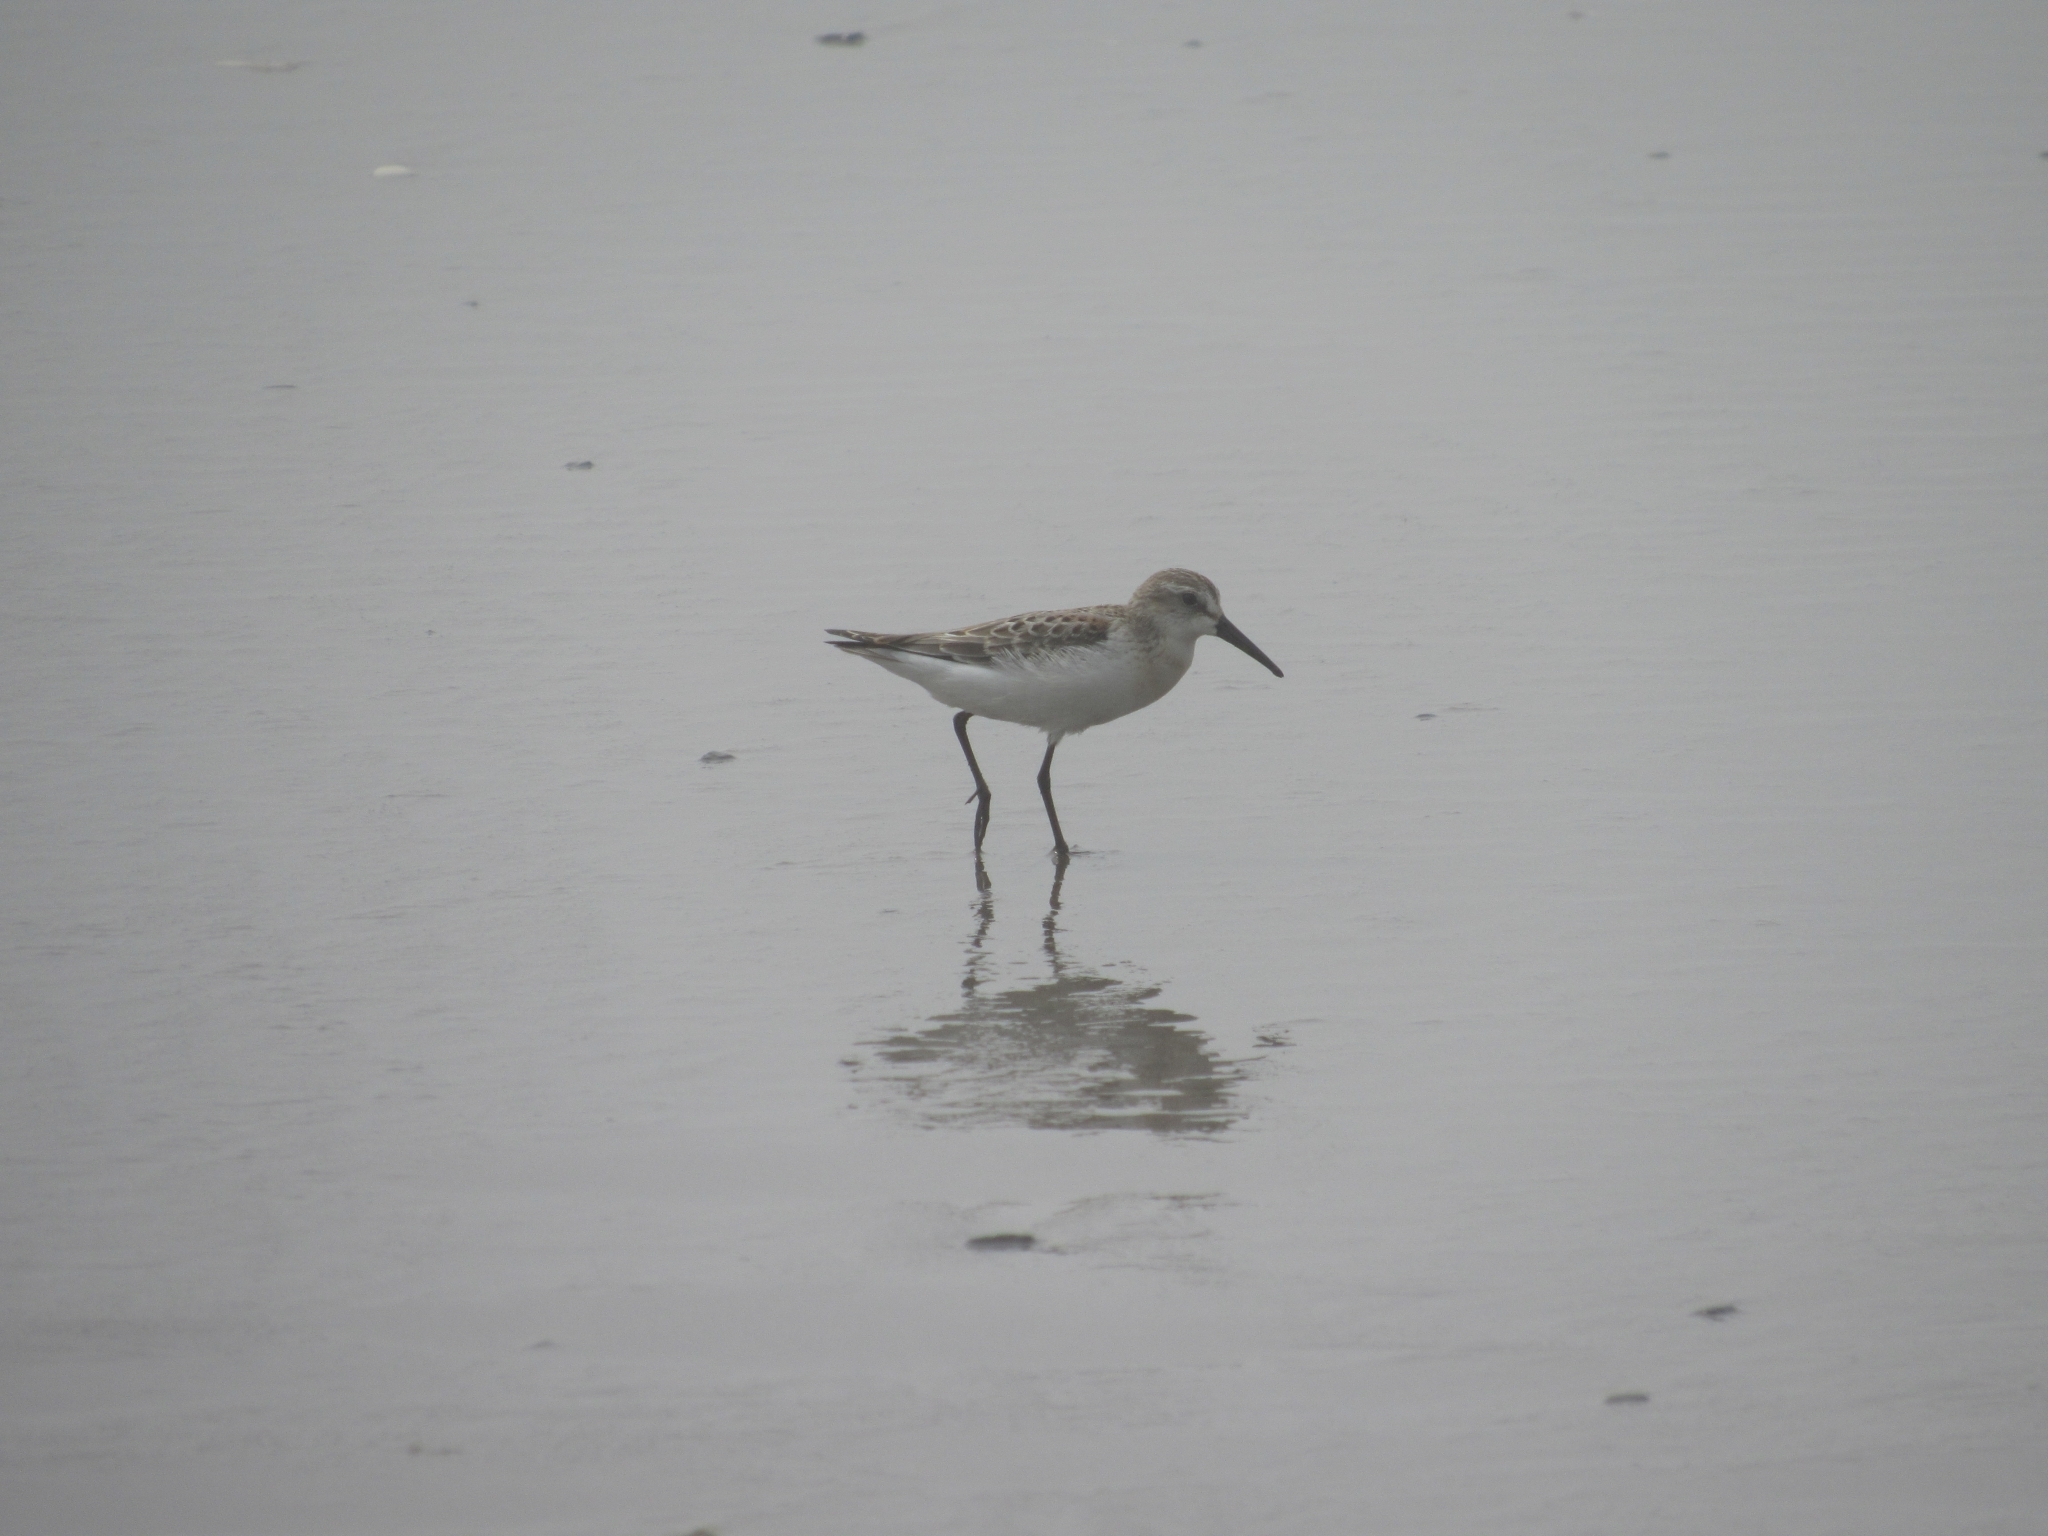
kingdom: Animalia
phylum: Chordata
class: Aves
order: Charadriiformes
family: Scolopacidae
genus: Calidris
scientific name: Calidris mauri
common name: Western sandpiper
